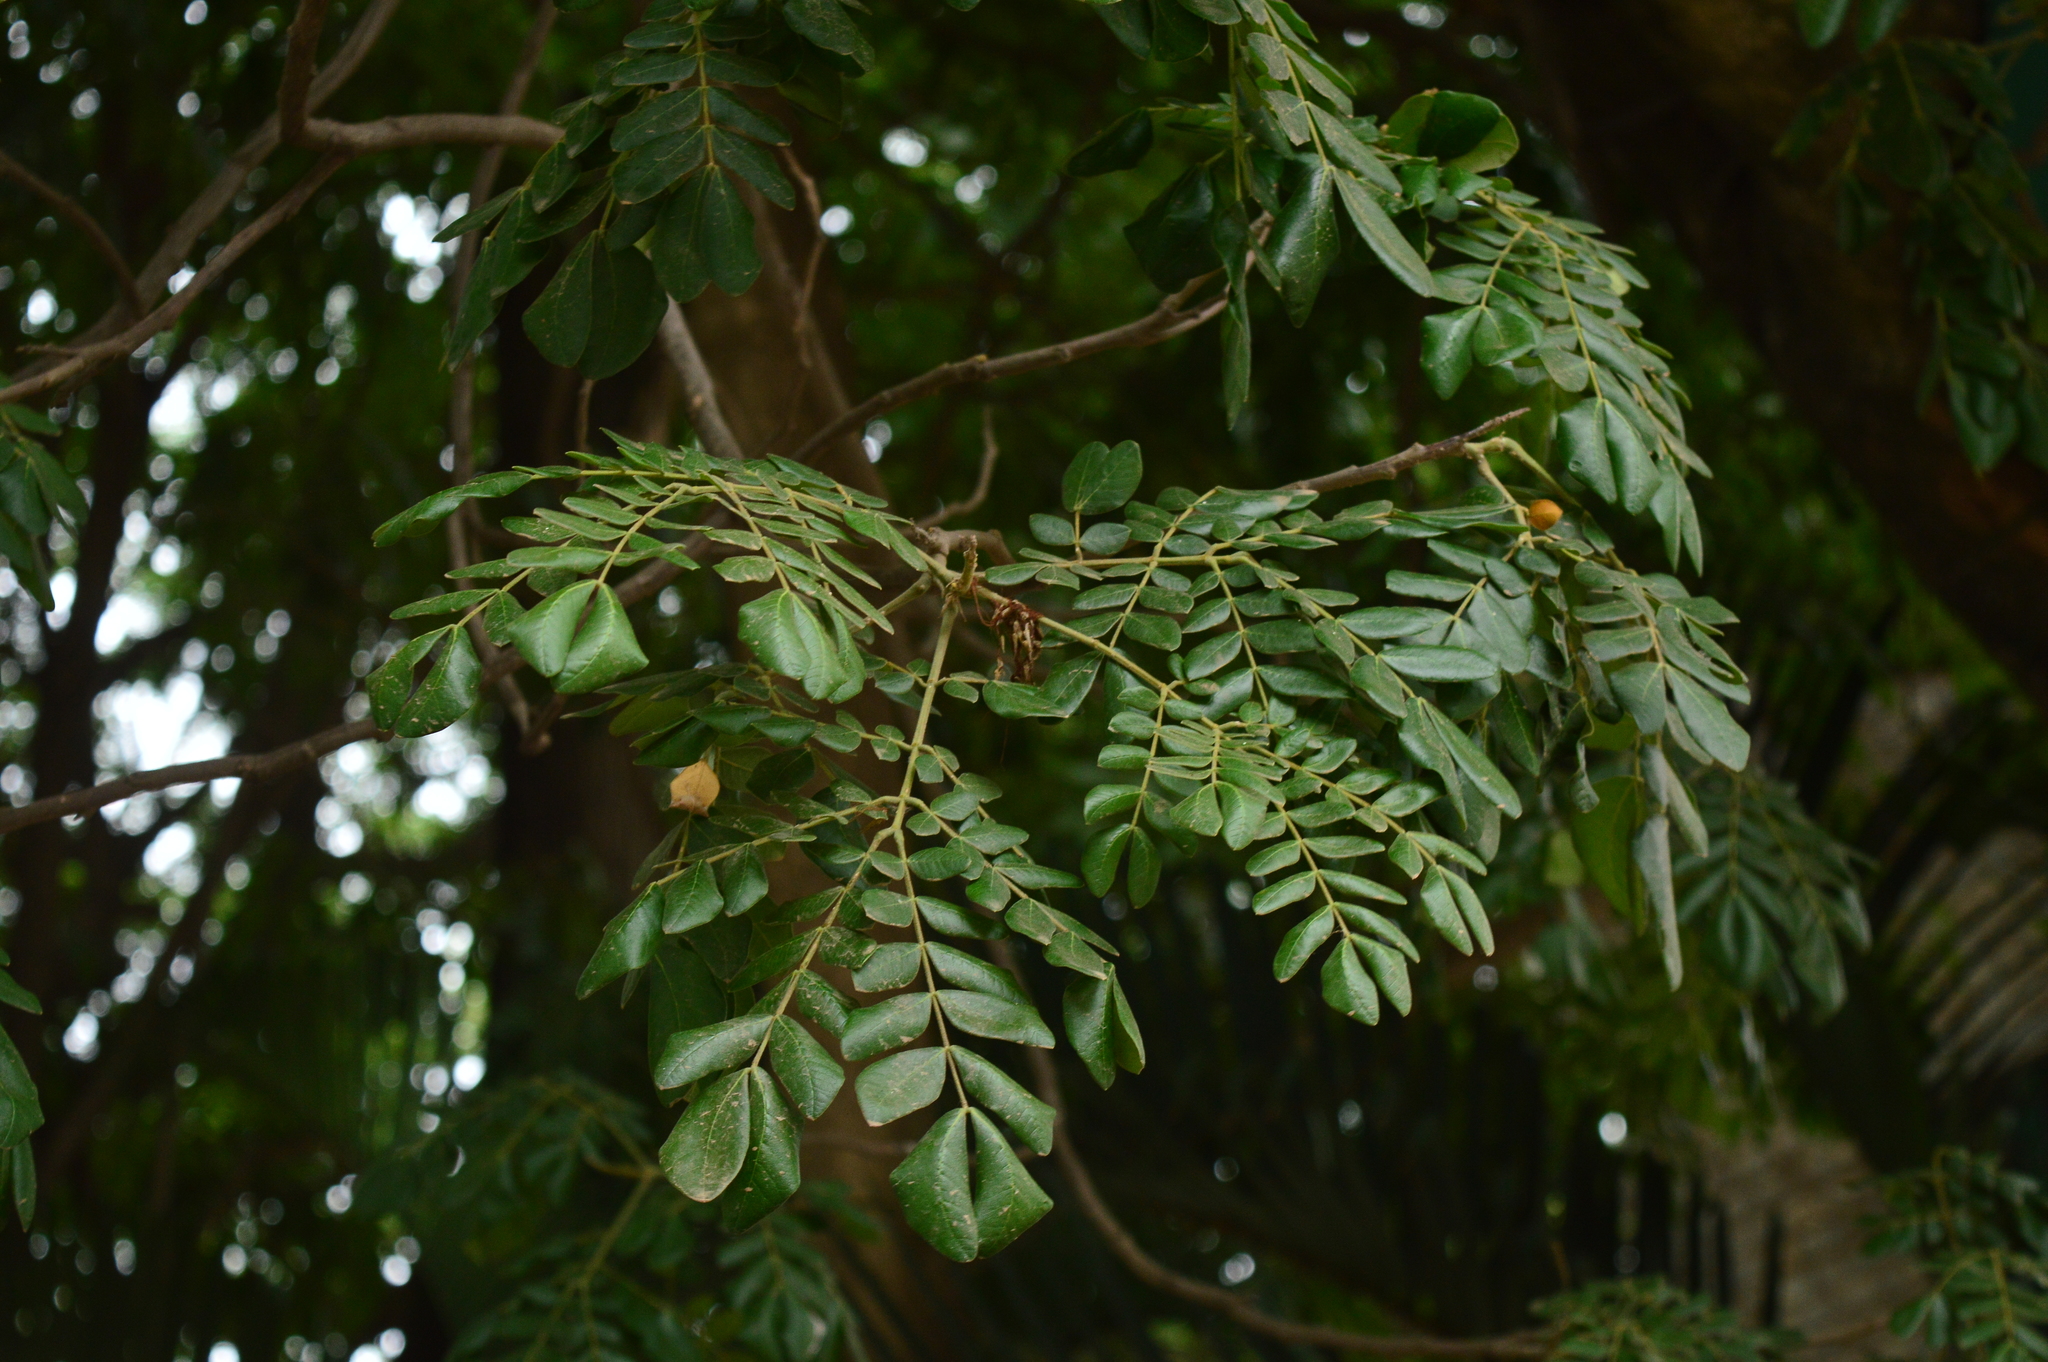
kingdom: Plantae
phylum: Tracheophyta
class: Magnoliopsida
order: Fabales
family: Fabaceae
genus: Samanea
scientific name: Samanea saman
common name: Raintree
